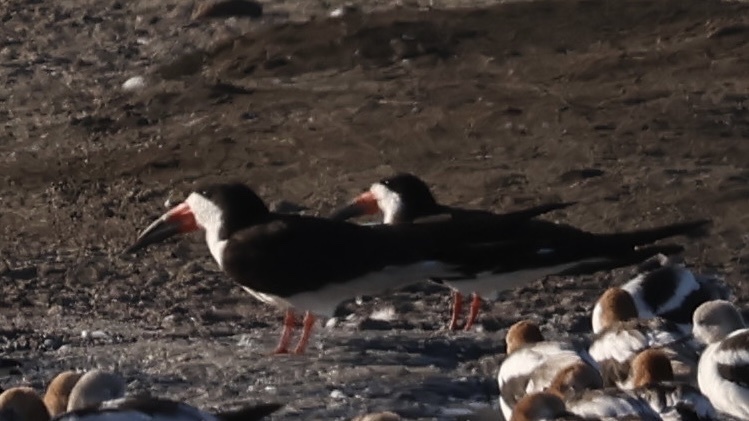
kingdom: Animalia
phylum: Chordata
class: Aves
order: Charadriiformes
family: Laridae
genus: Rynchops
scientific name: Rynchops niger
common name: Black skimmer
